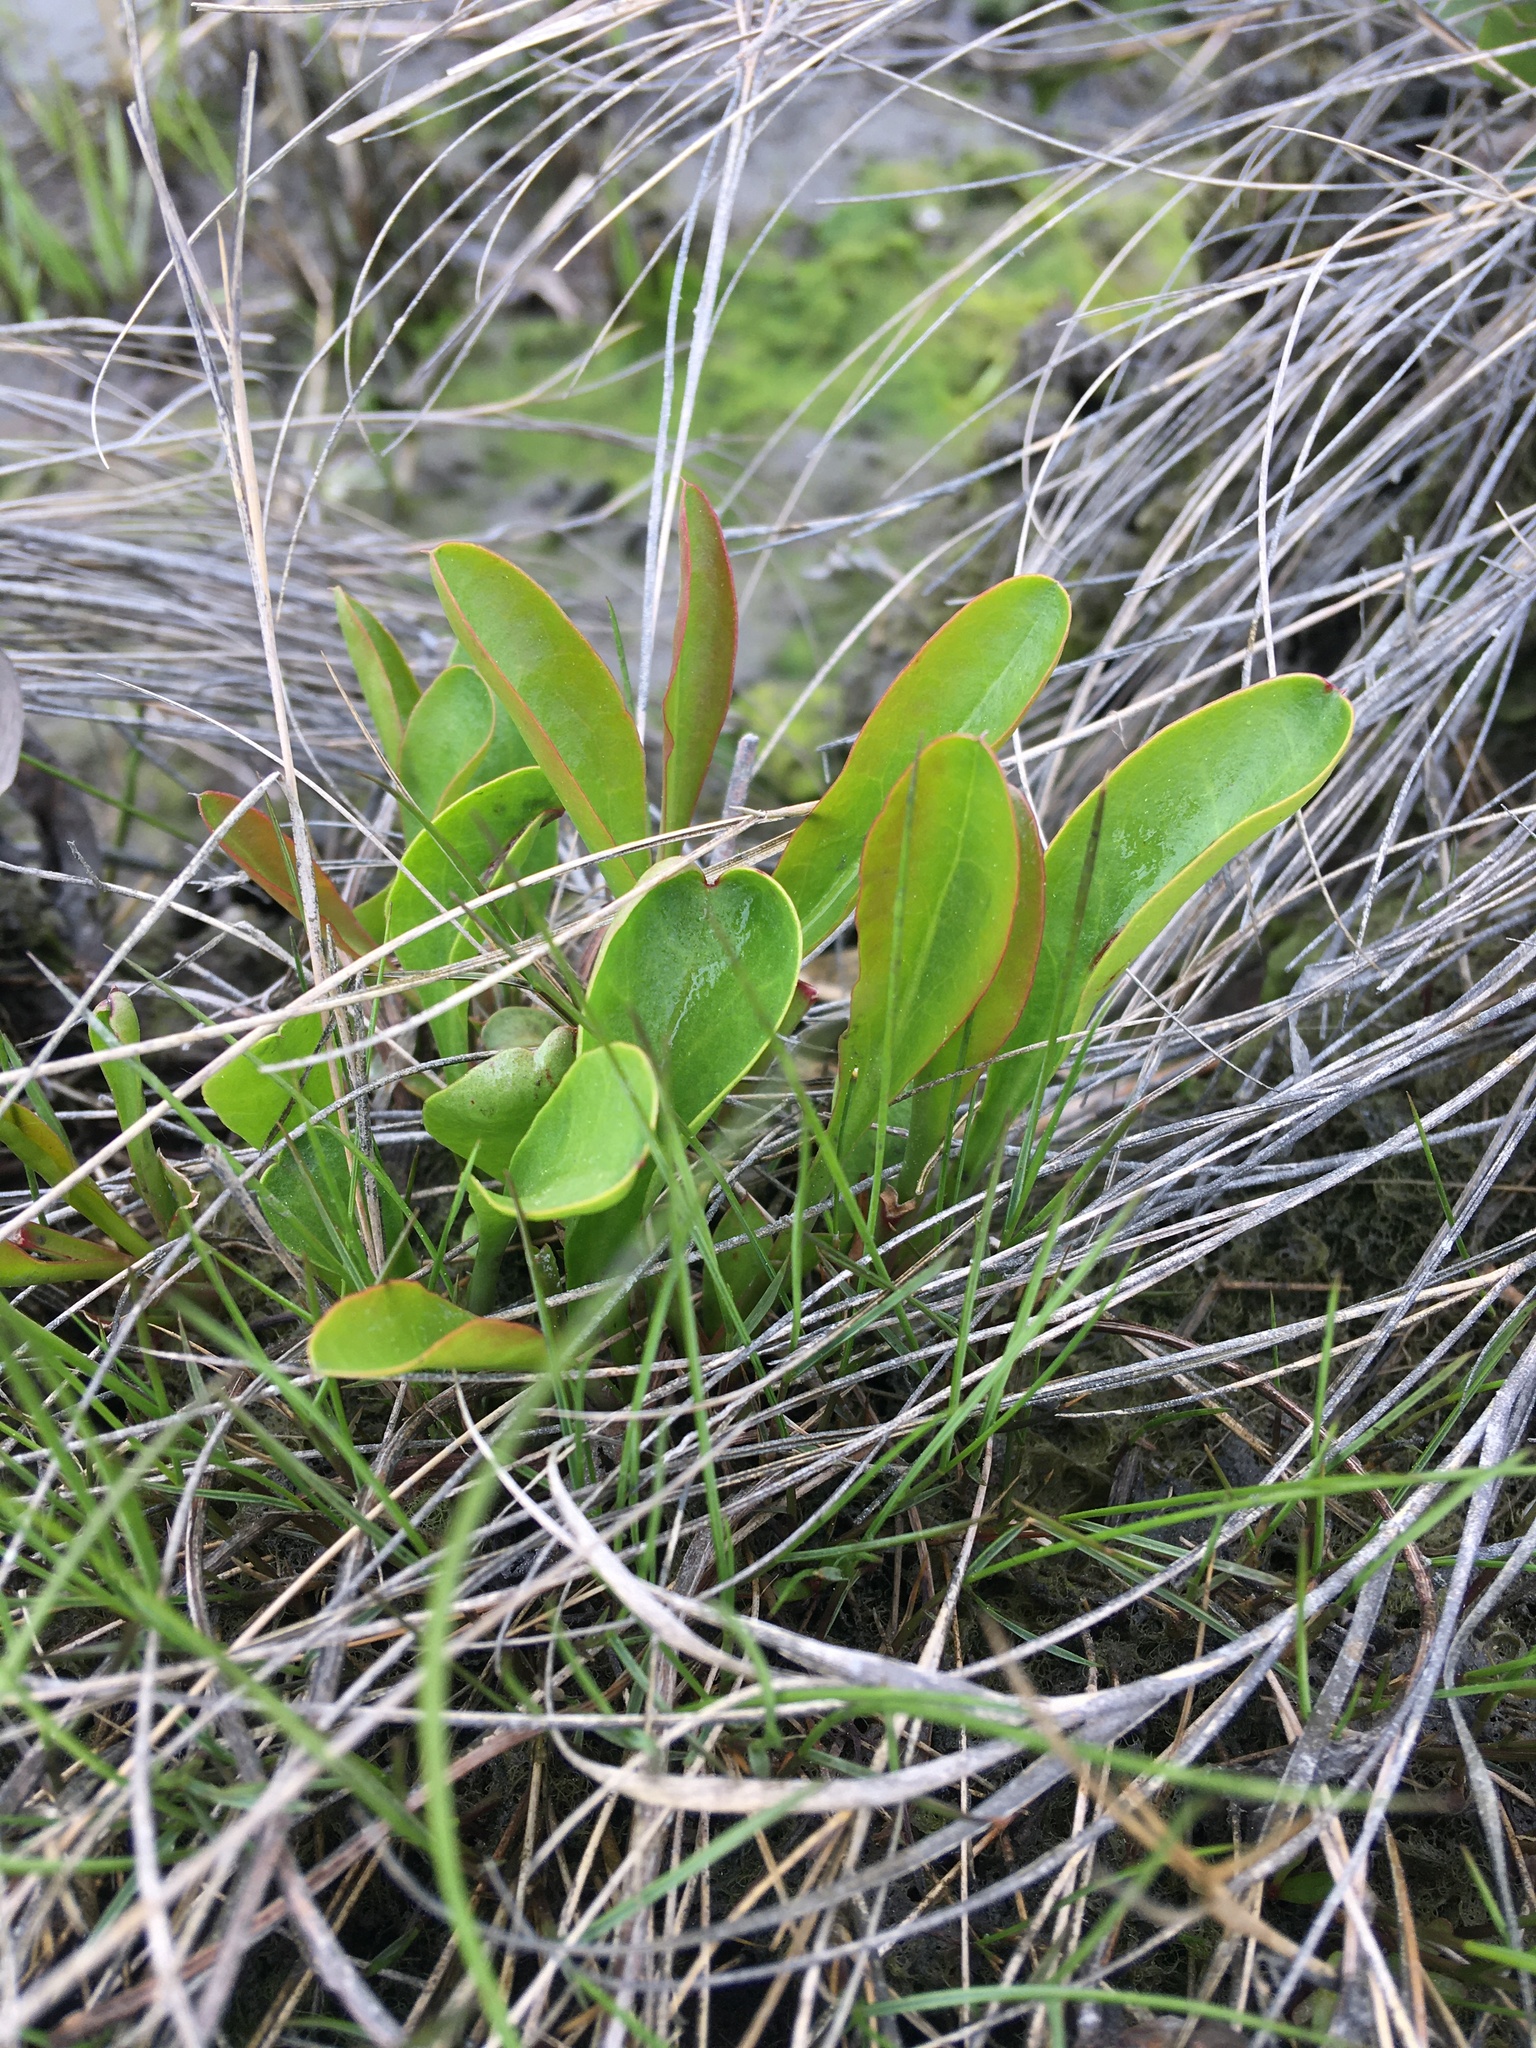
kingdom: Plantae
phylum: Tracheophyta
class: Magnoliopsida
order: Caryophyllales
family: Plumbaginaceae
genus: Limonium
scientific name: Limonium carolinianum
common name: Carolina sea lavender
